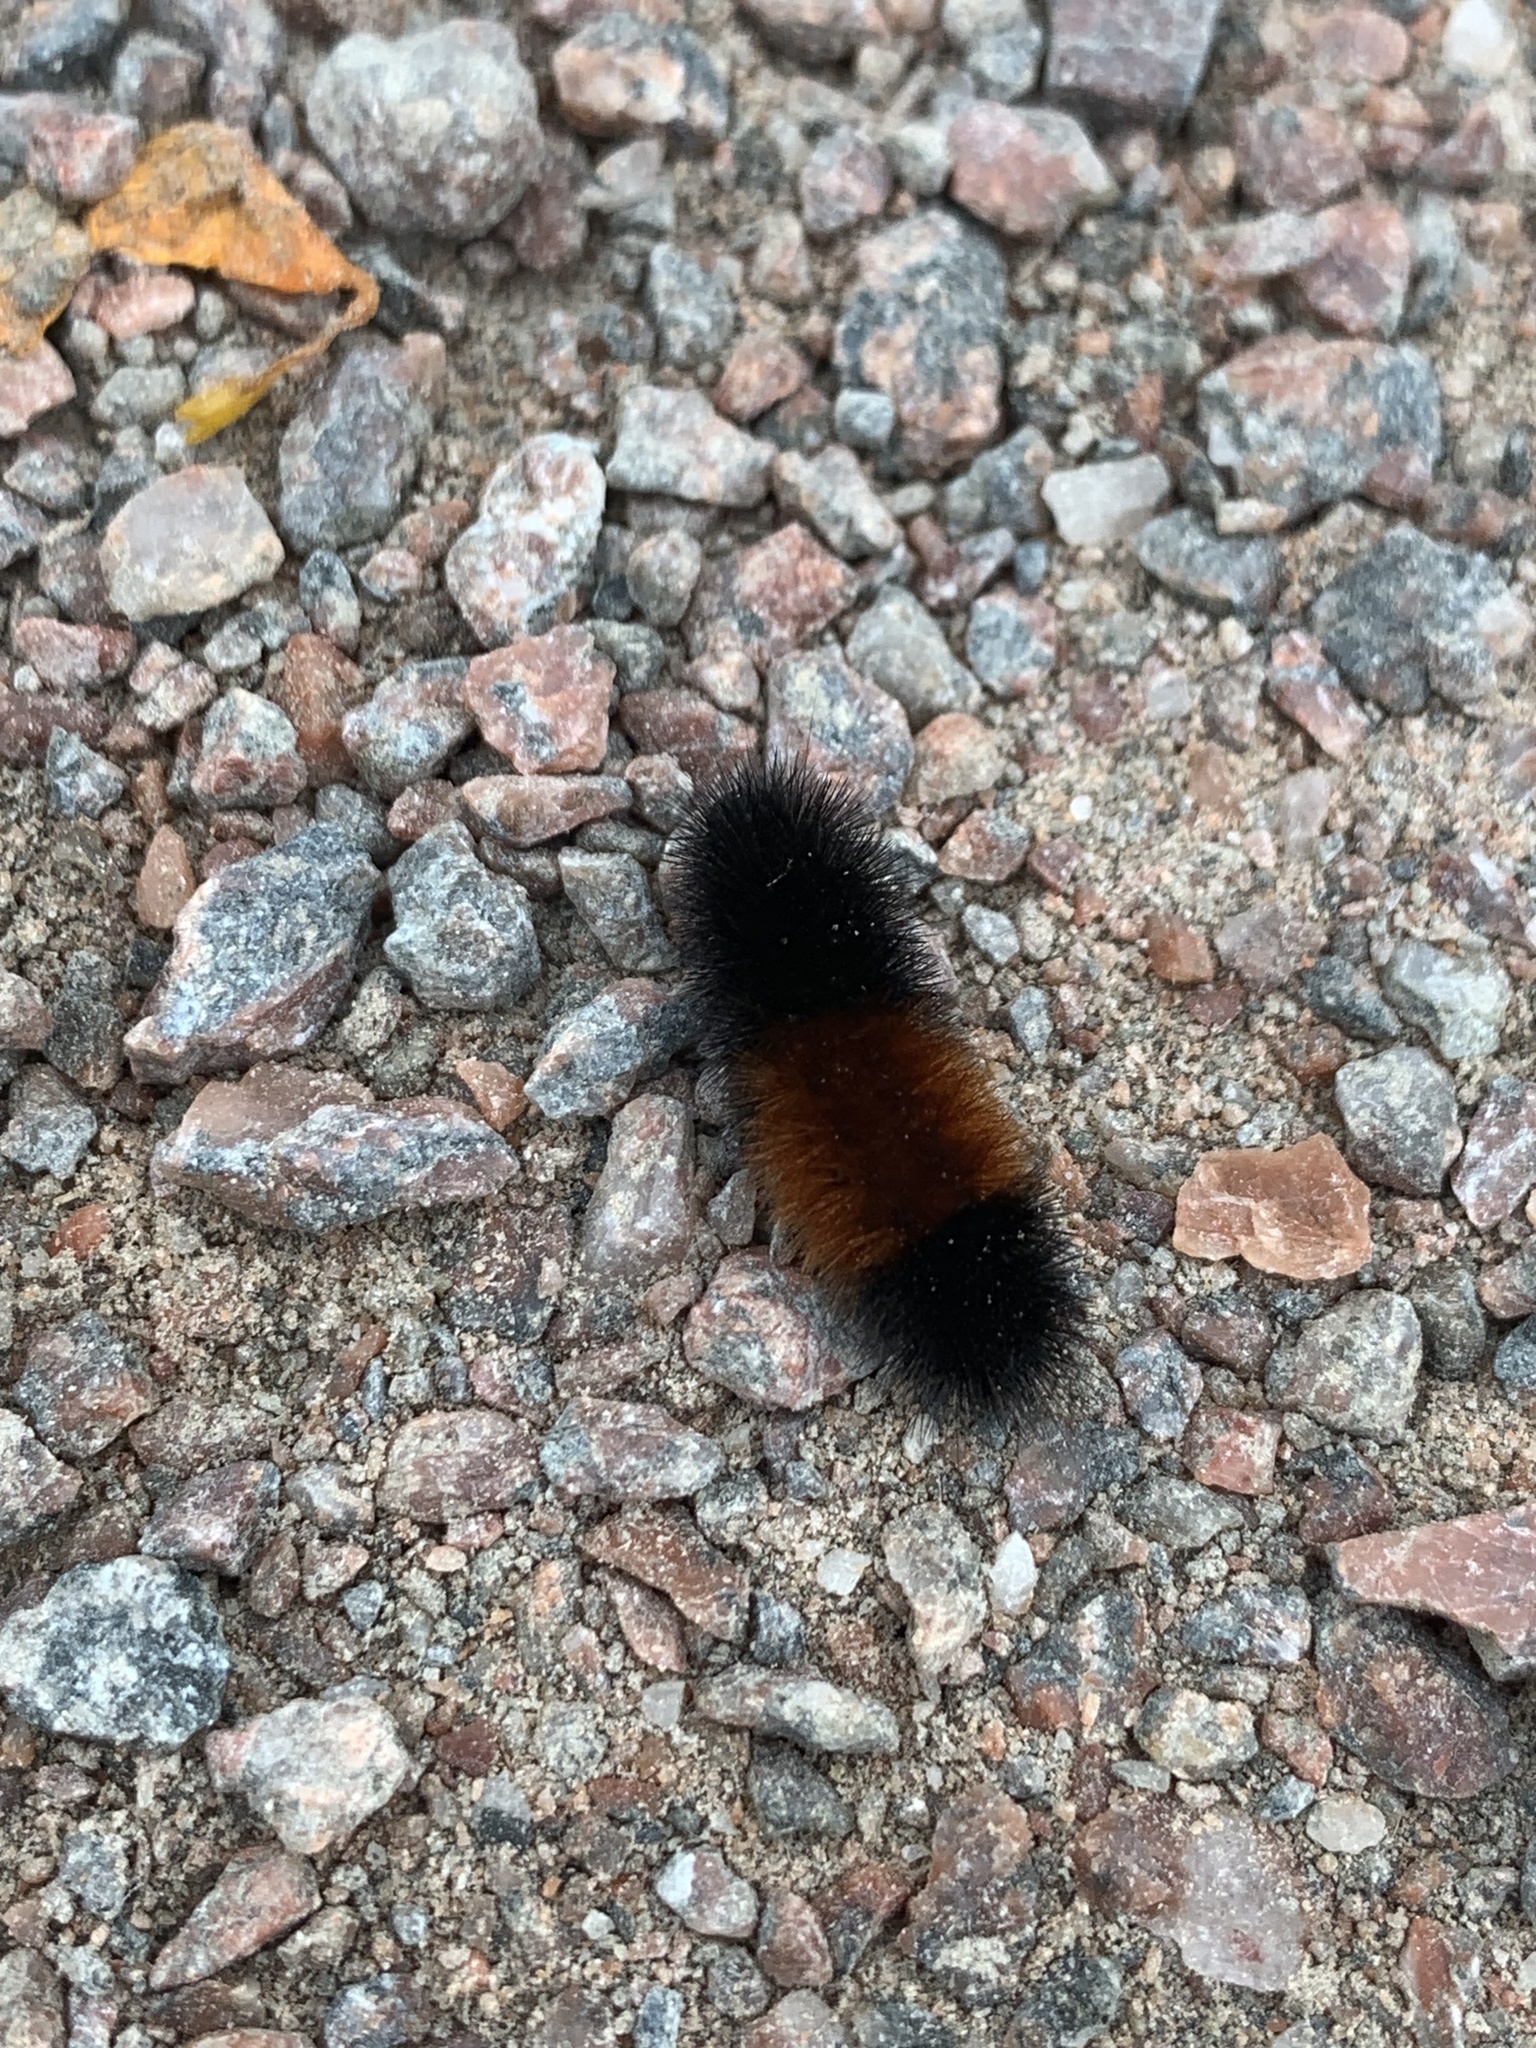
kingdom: Animalia
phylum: Arthropoda
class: Insecta
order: Lepidoptera
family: Erebidae
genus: Pyrrharctia
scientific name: Pyrrharctia isabella
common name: Isabella tiger moth
